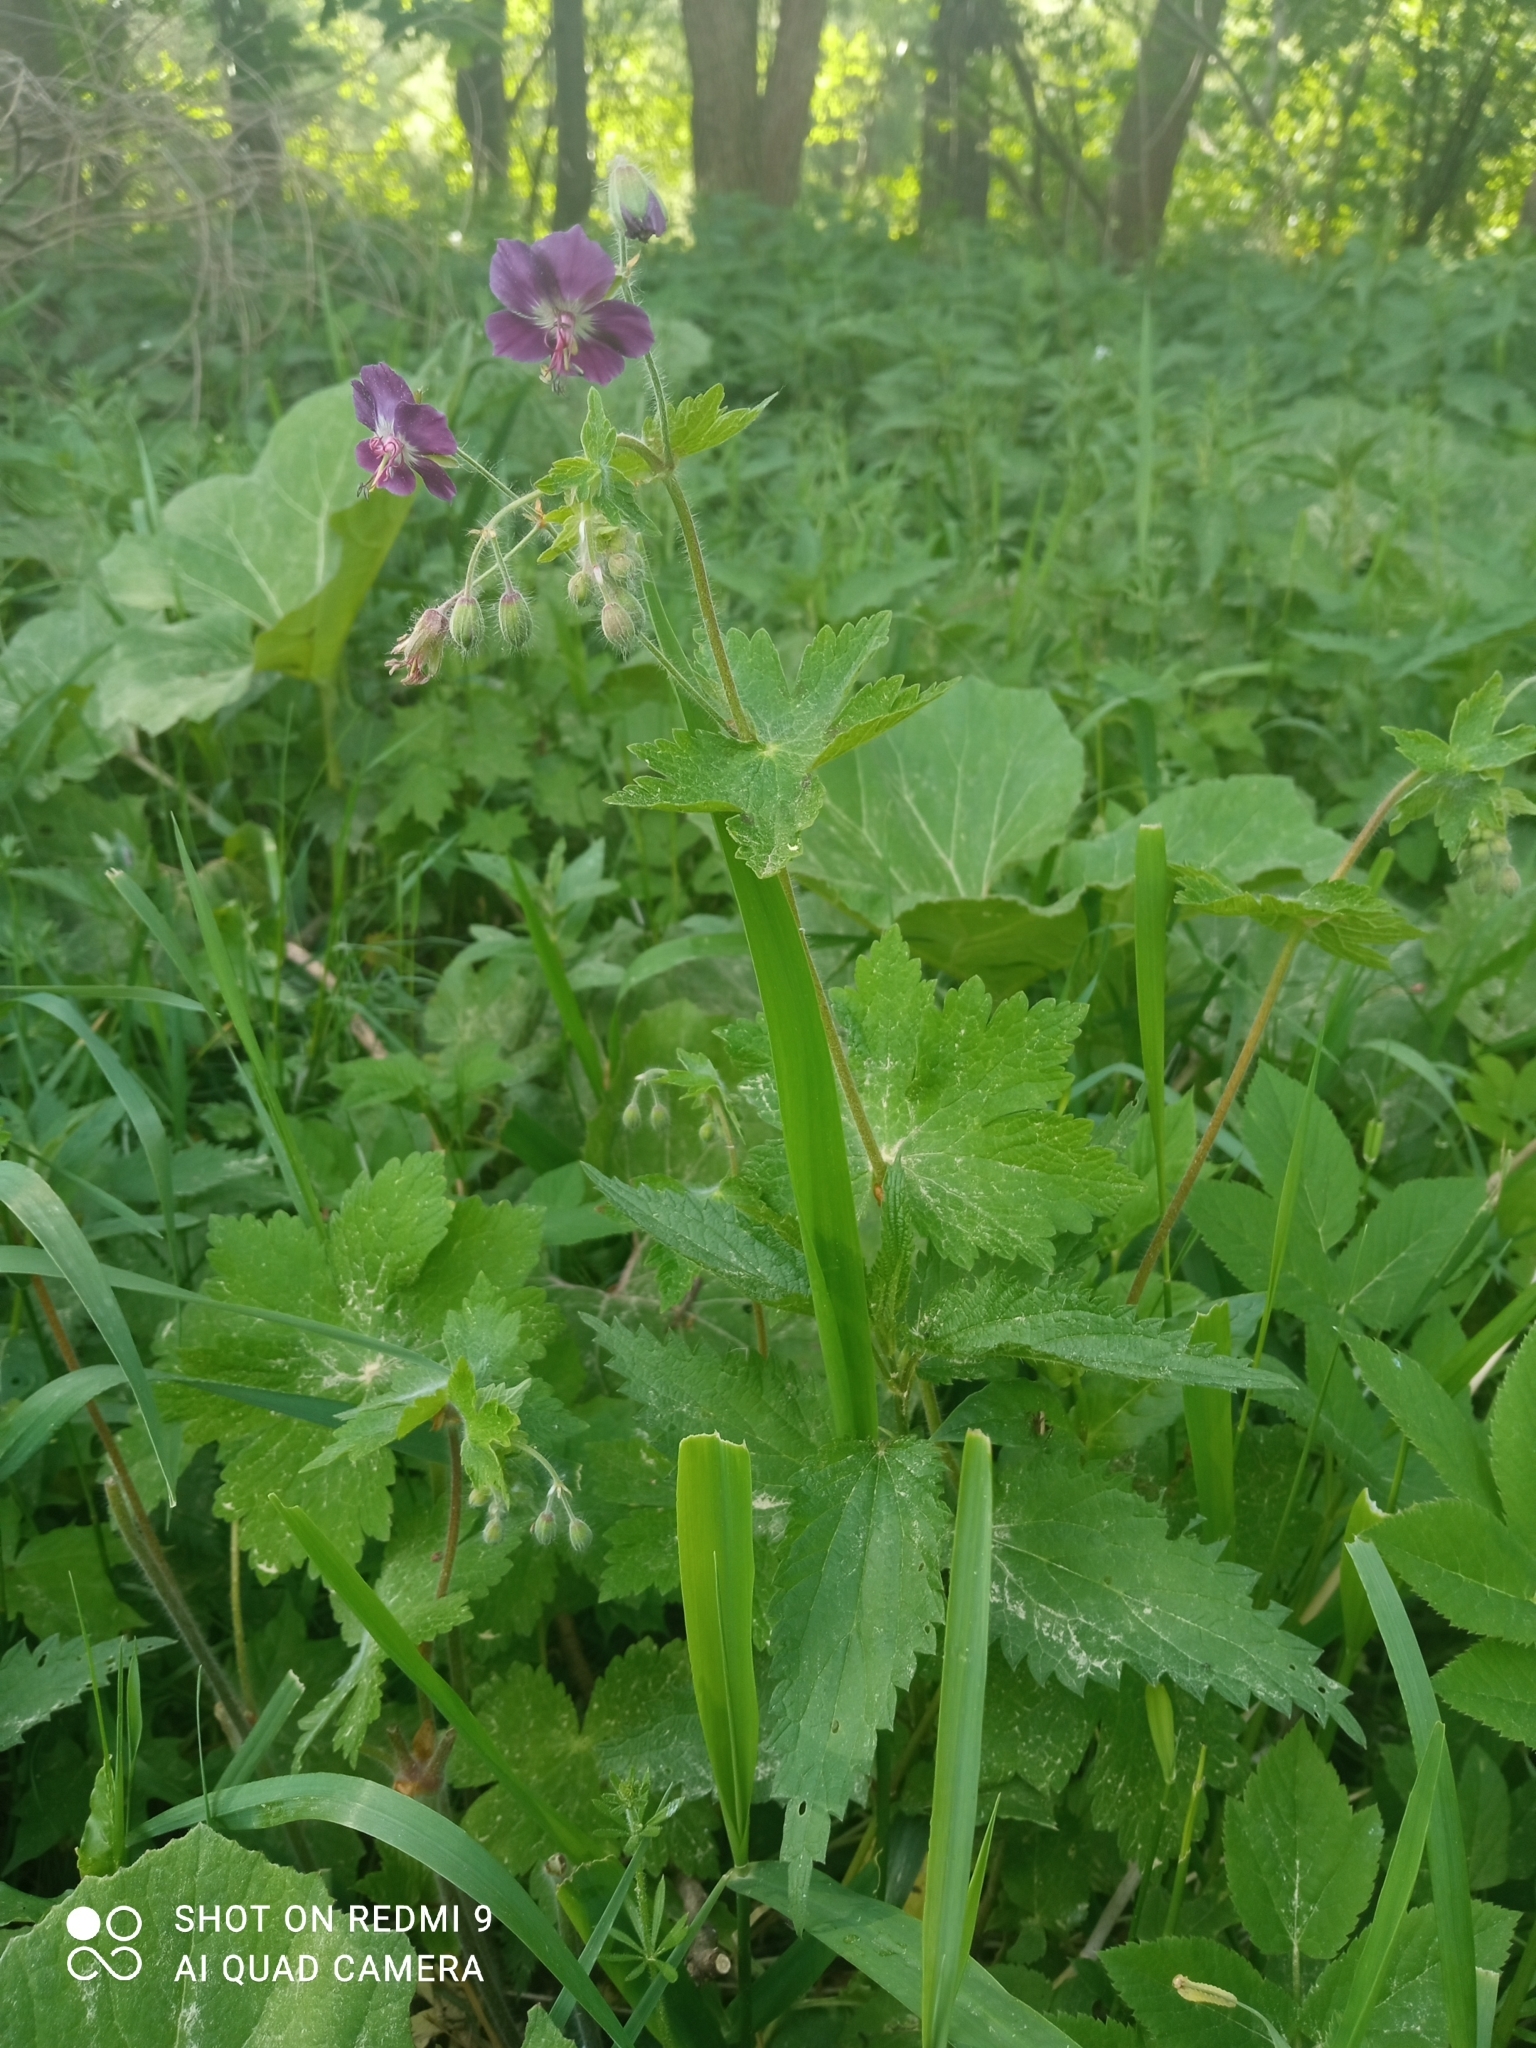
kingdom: Plantae
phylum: Tracheophyta
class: Magnoliopsida
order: Geraniales
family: Geraniaceae
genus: Geranium
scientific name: Geranium phaeum
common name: Dusky crane's-bill
